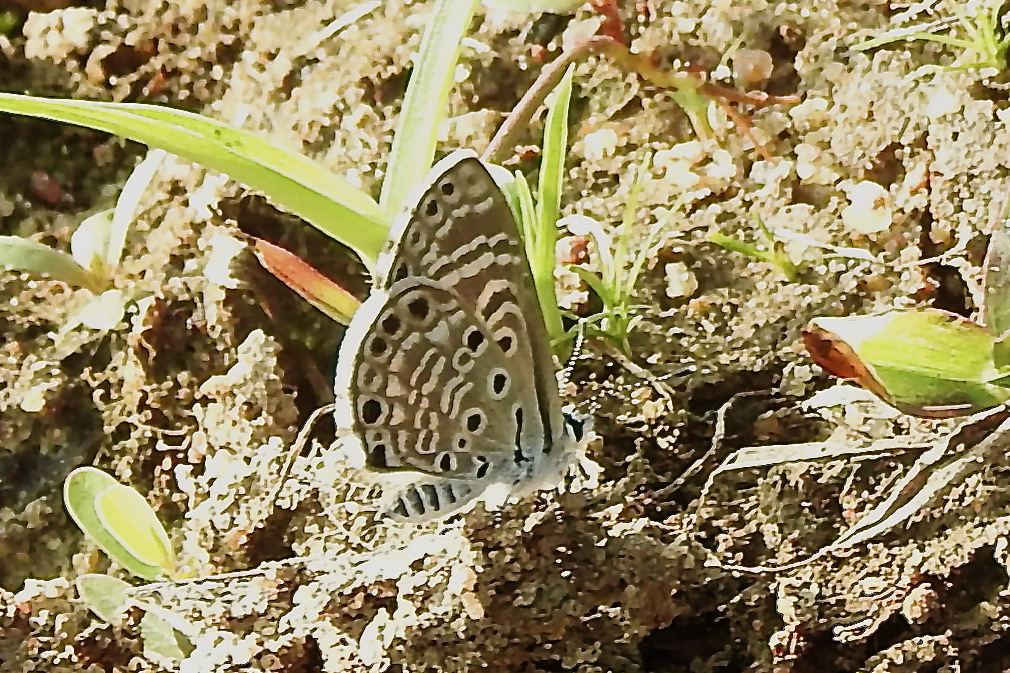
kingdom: Animalia
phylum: Arthropoda
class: Insecta
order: Lepidoptera
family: Lycaenidae
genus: Azanus
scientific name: Azanus jesous
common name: African babul blue
